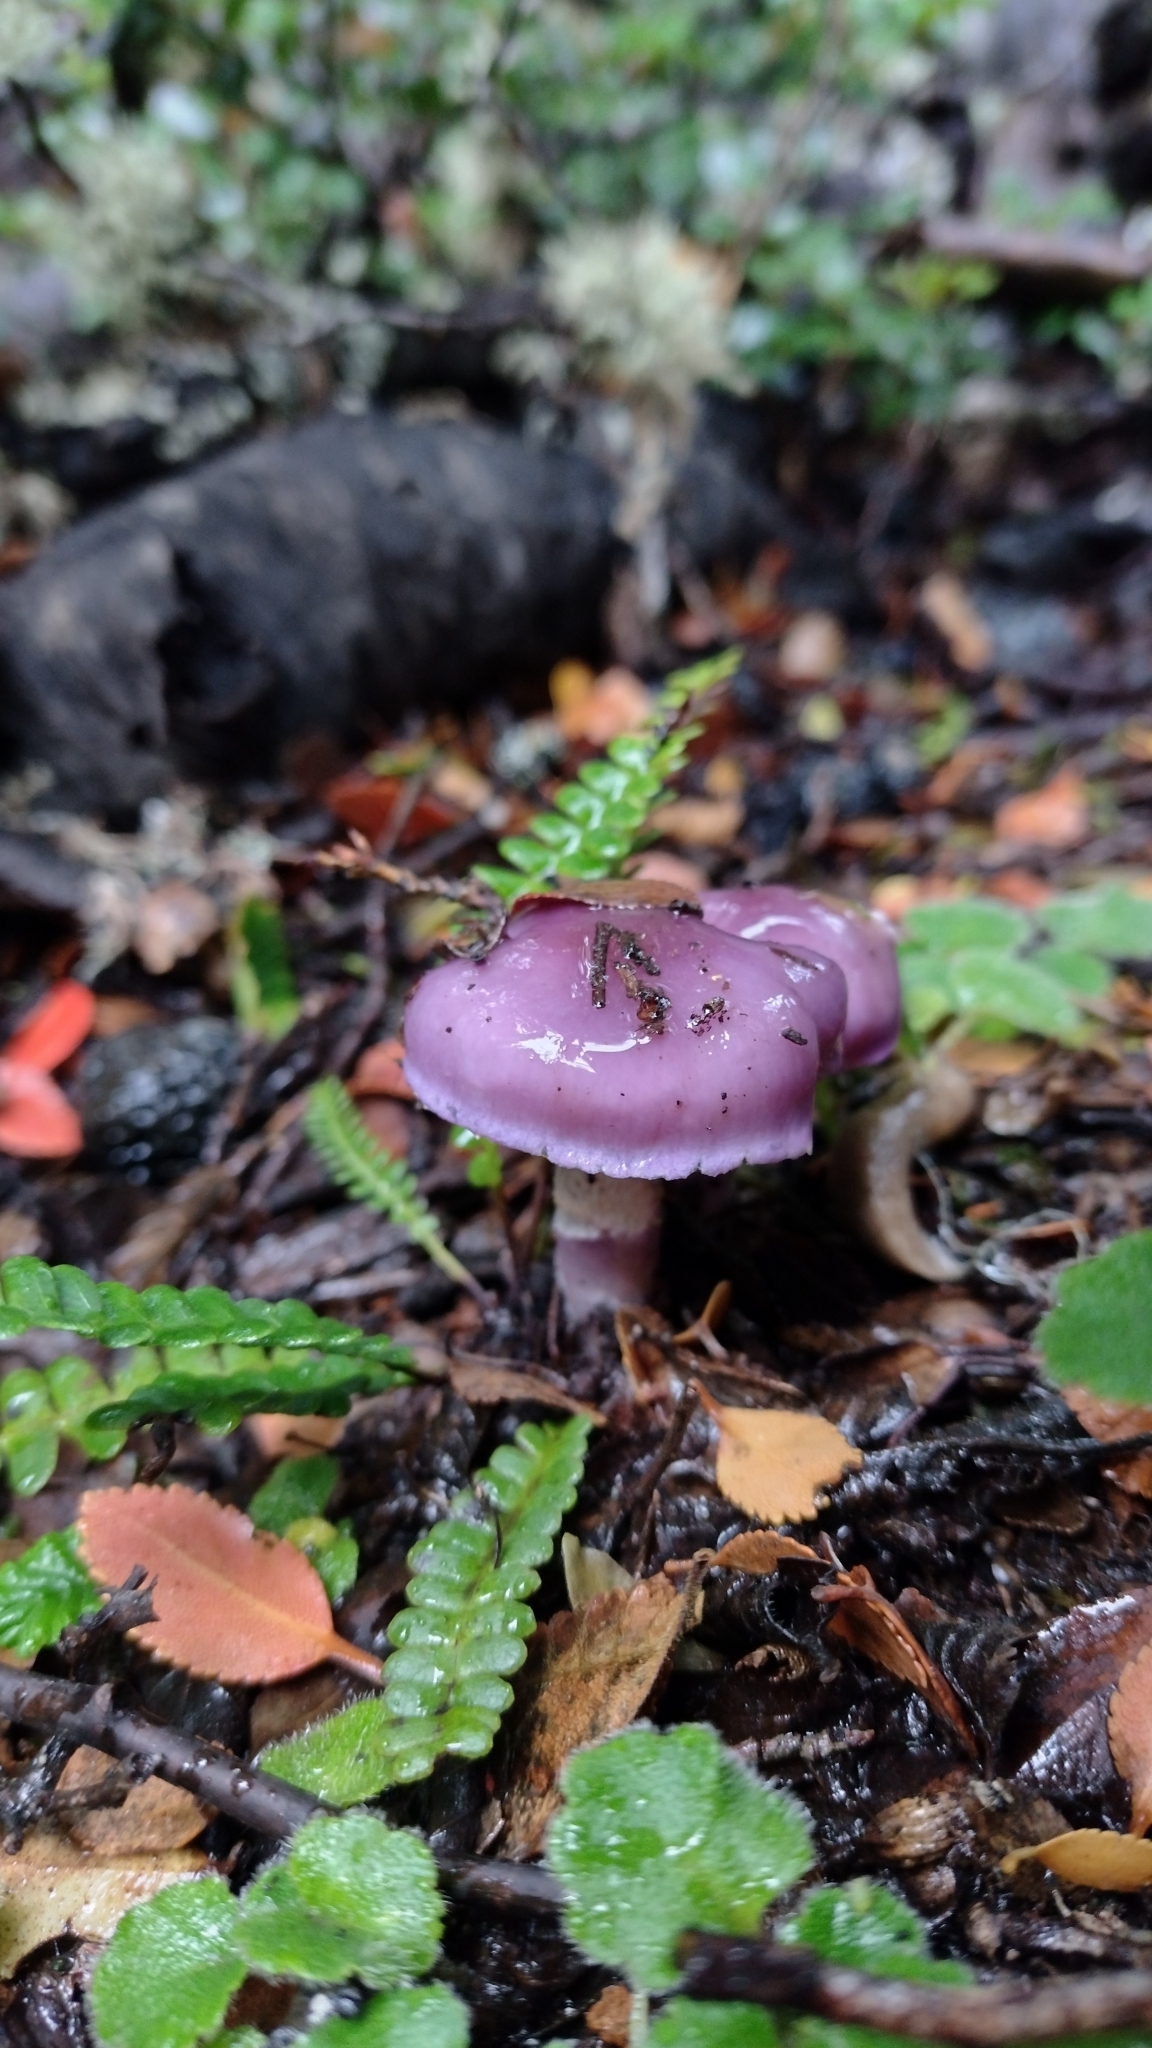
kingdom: Fungi
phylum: Basidiomycota
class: Agaricomycetes
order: Agaricales
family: Cortinariaceae
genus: Cortinarius
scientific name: Cortinarius magellanicus
